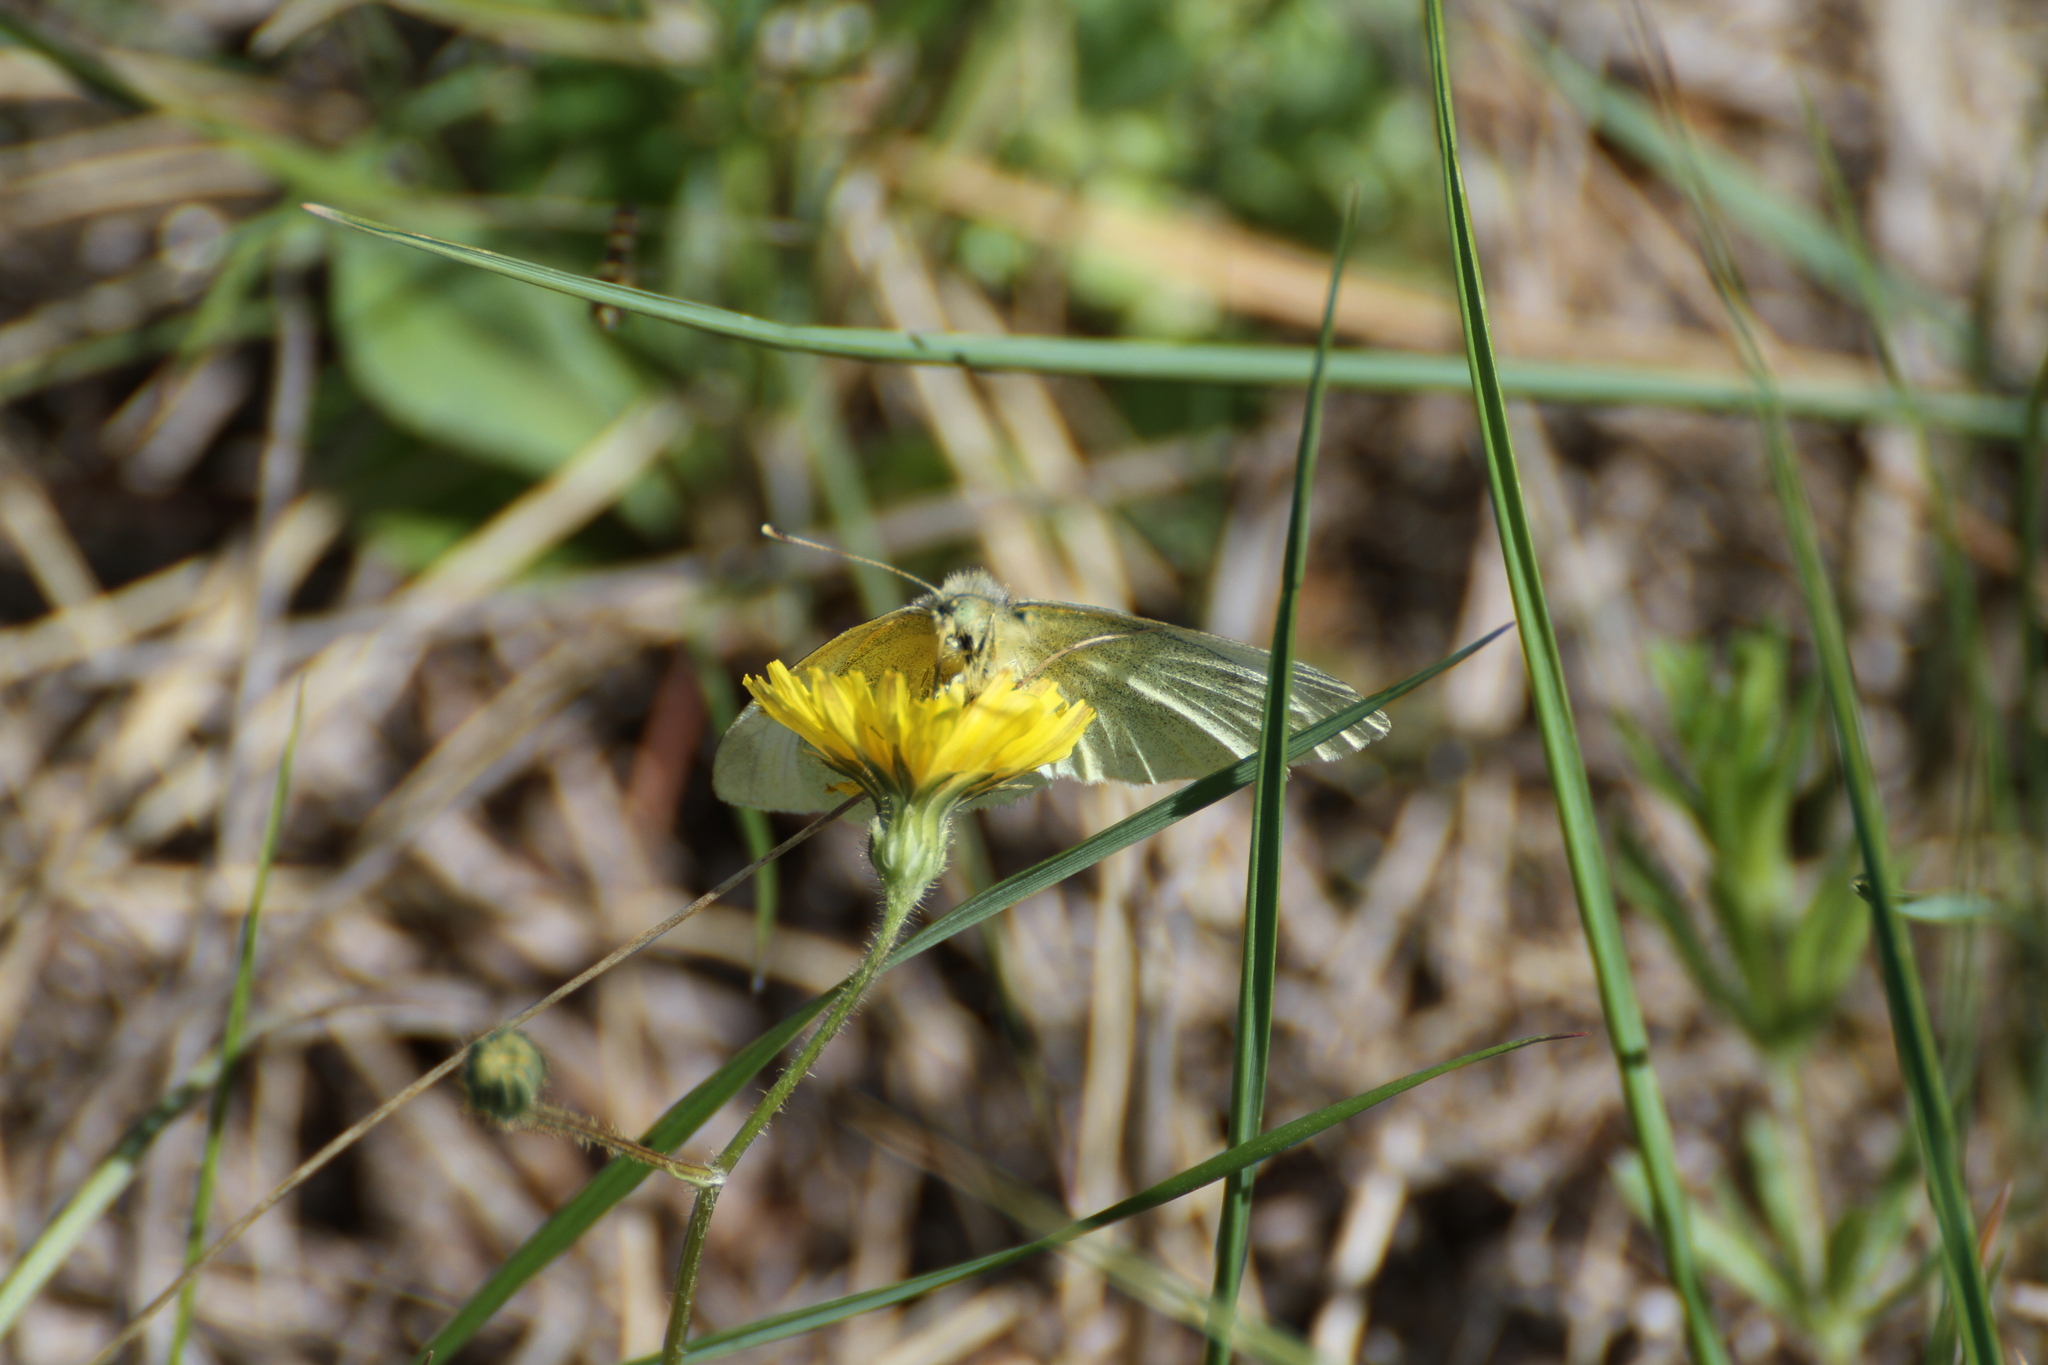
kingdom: Animalia
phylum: Arthropoda
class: Insecta
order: Lepidoptera
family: Pieridae
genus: Pieris
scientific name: Pieris rapae
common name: Small white
